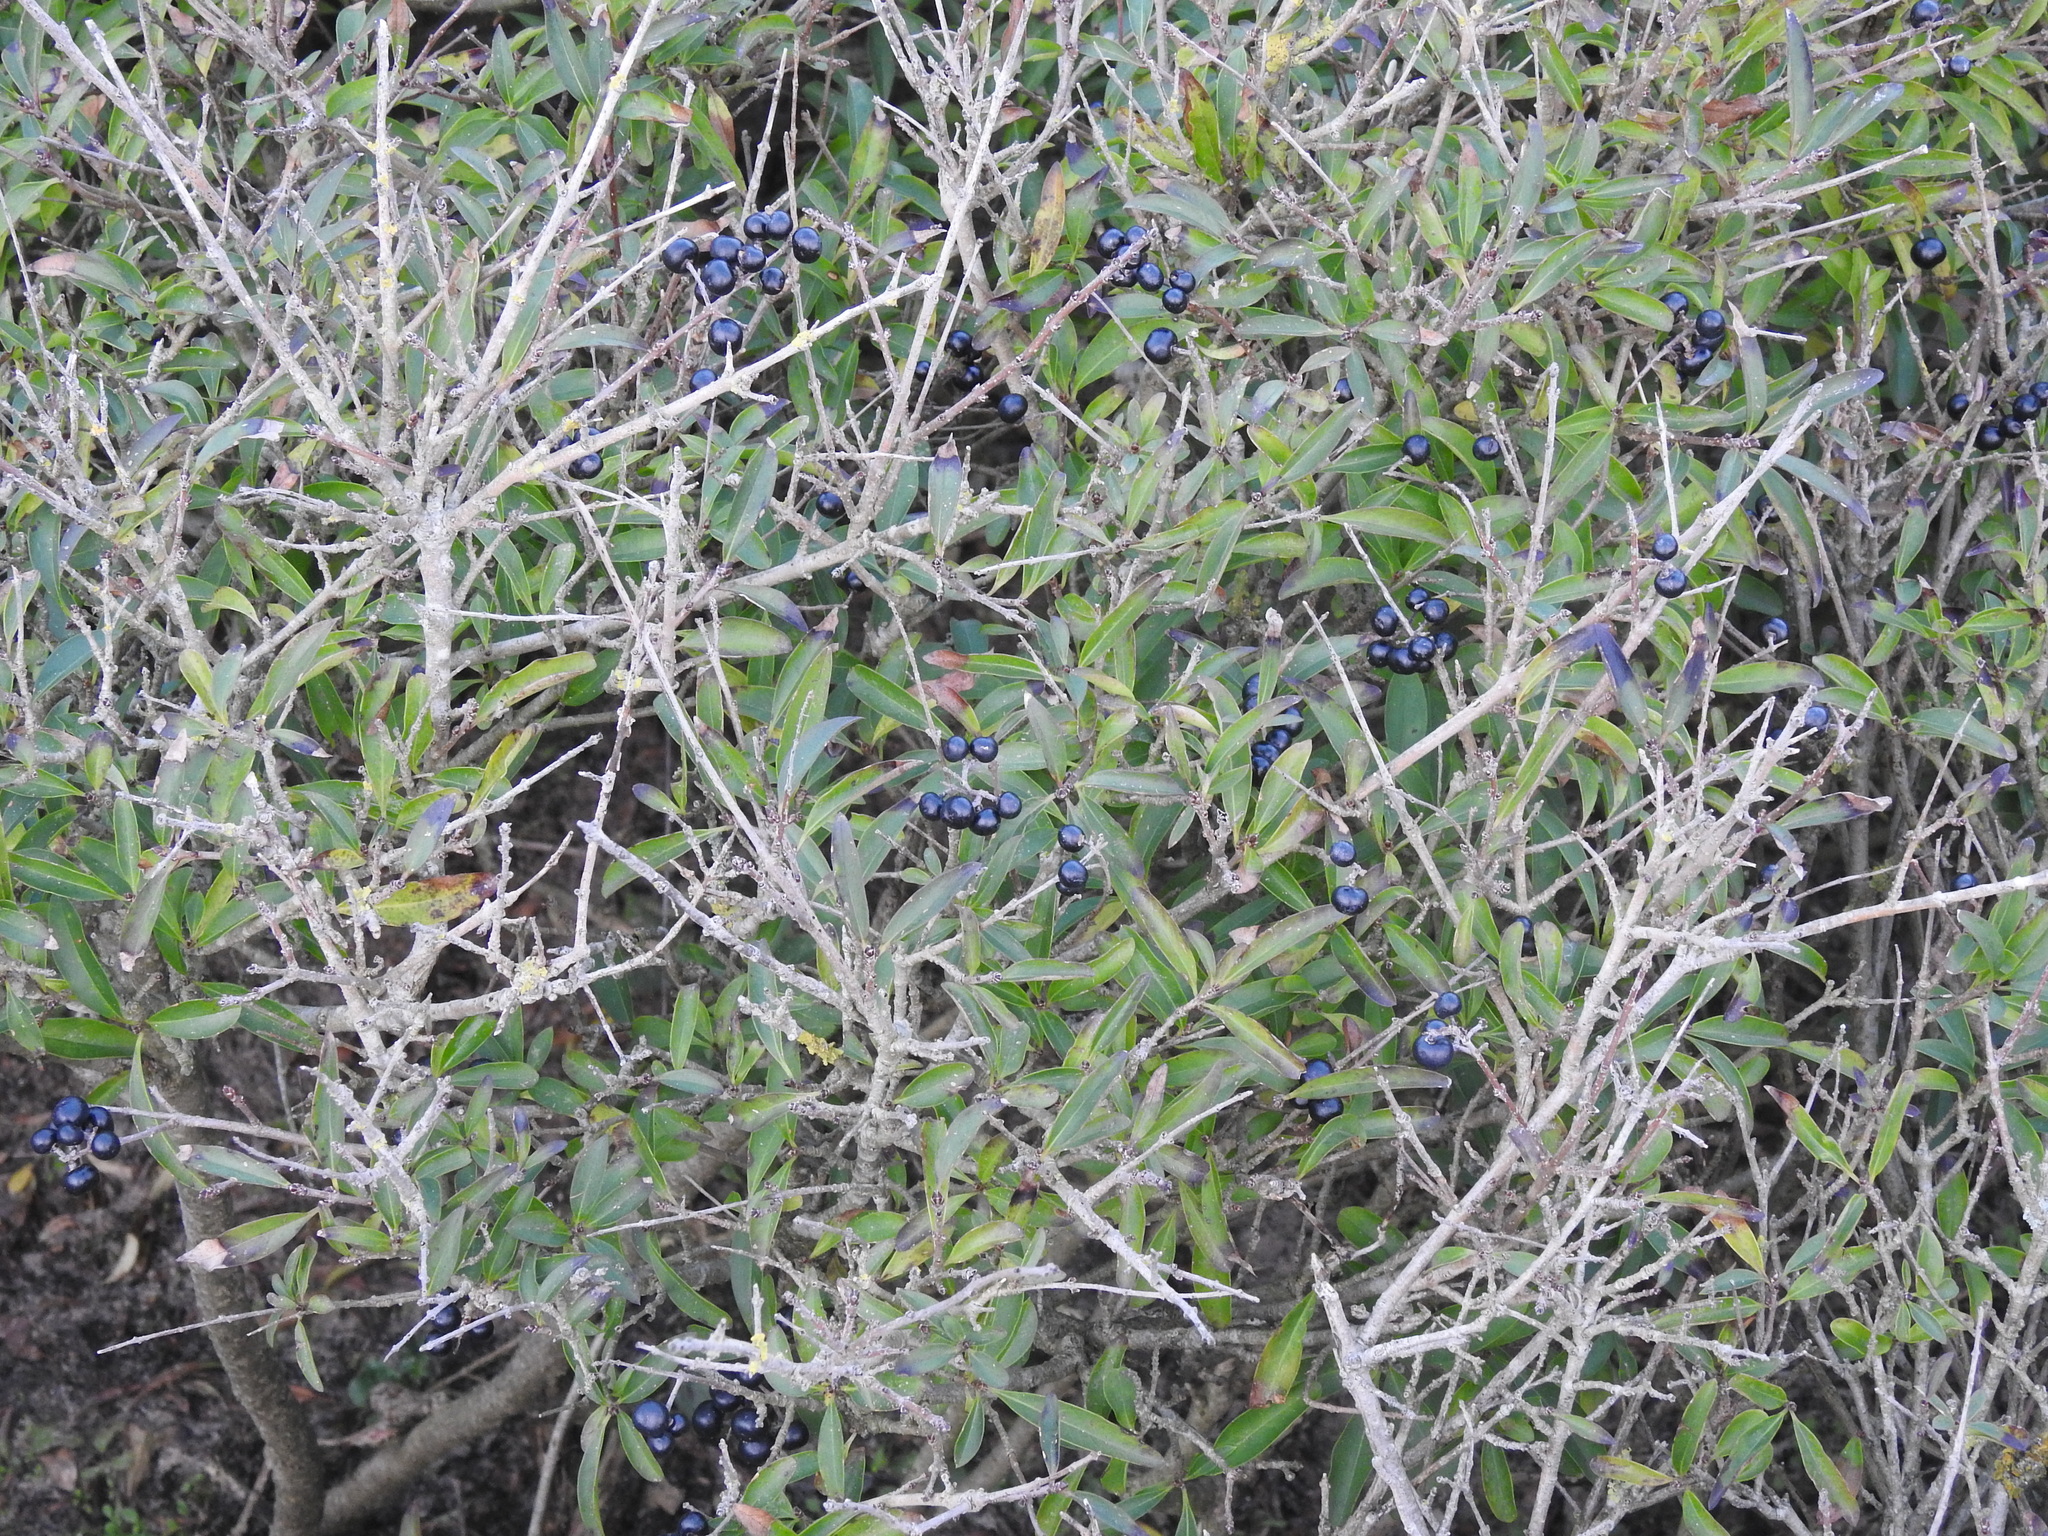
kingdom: Plantae
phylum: Tracheophyta
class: Magnoliopsida
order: Lamiales
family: Oleaceae
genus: Ligustrum
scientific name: Ligustrum vulgare
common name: Wild privet
